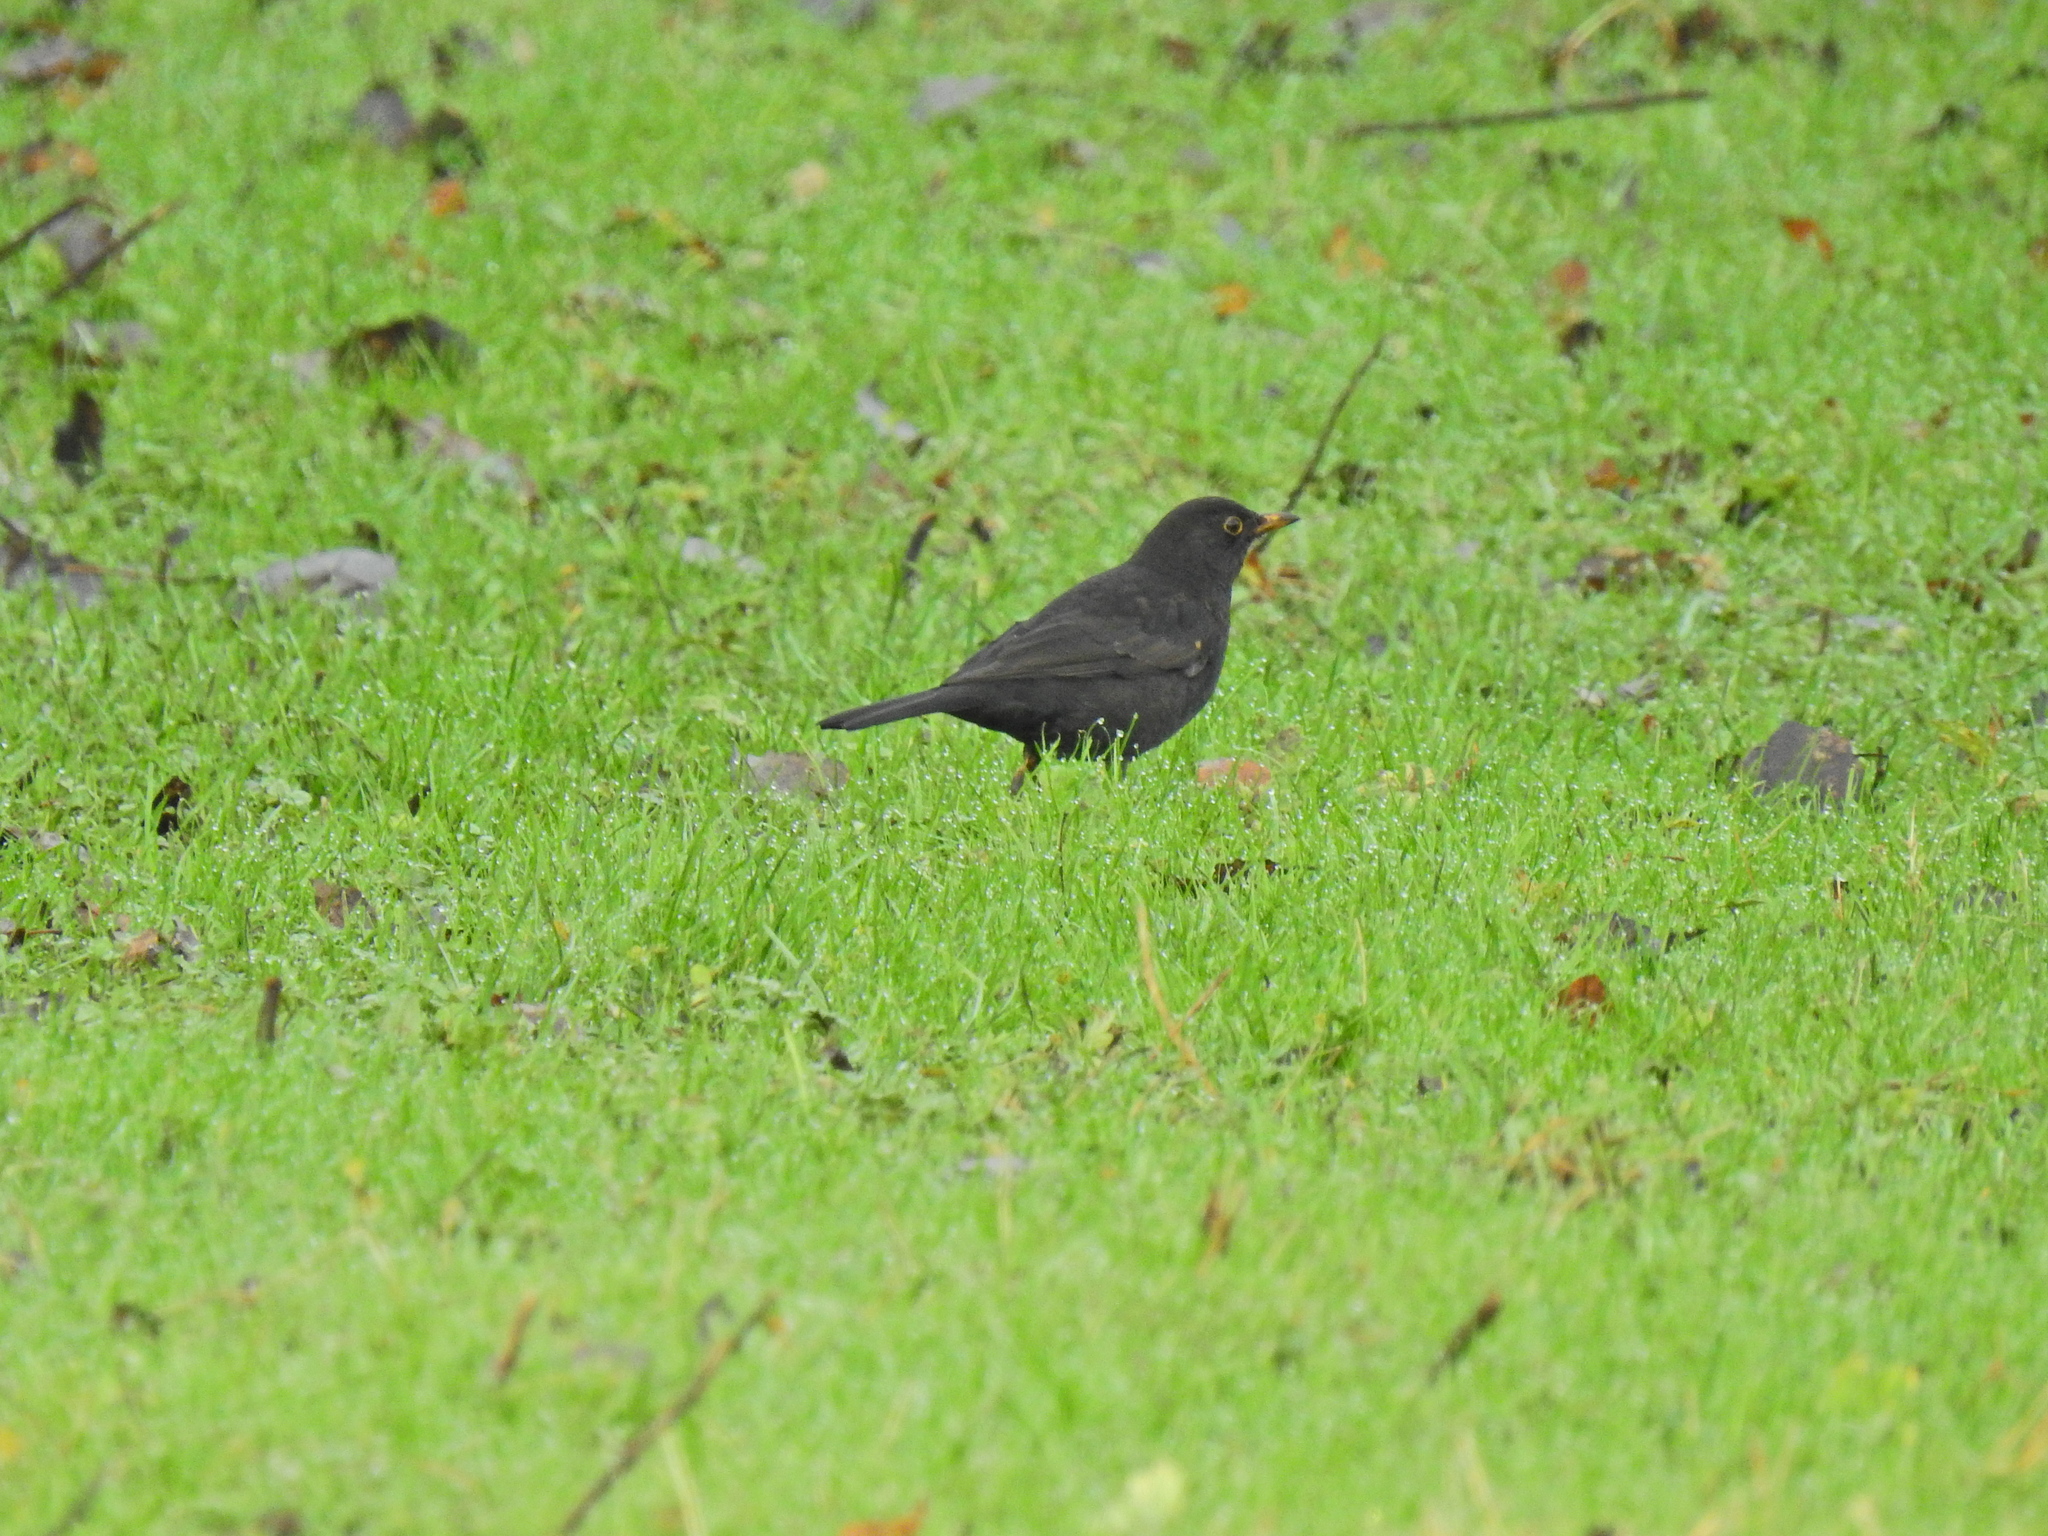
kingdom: Animalia
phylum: Chordata
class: Aves
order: Passeriformes
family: Turdidae
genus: Turdus
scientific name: Turdus merula
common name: Common blackbird
